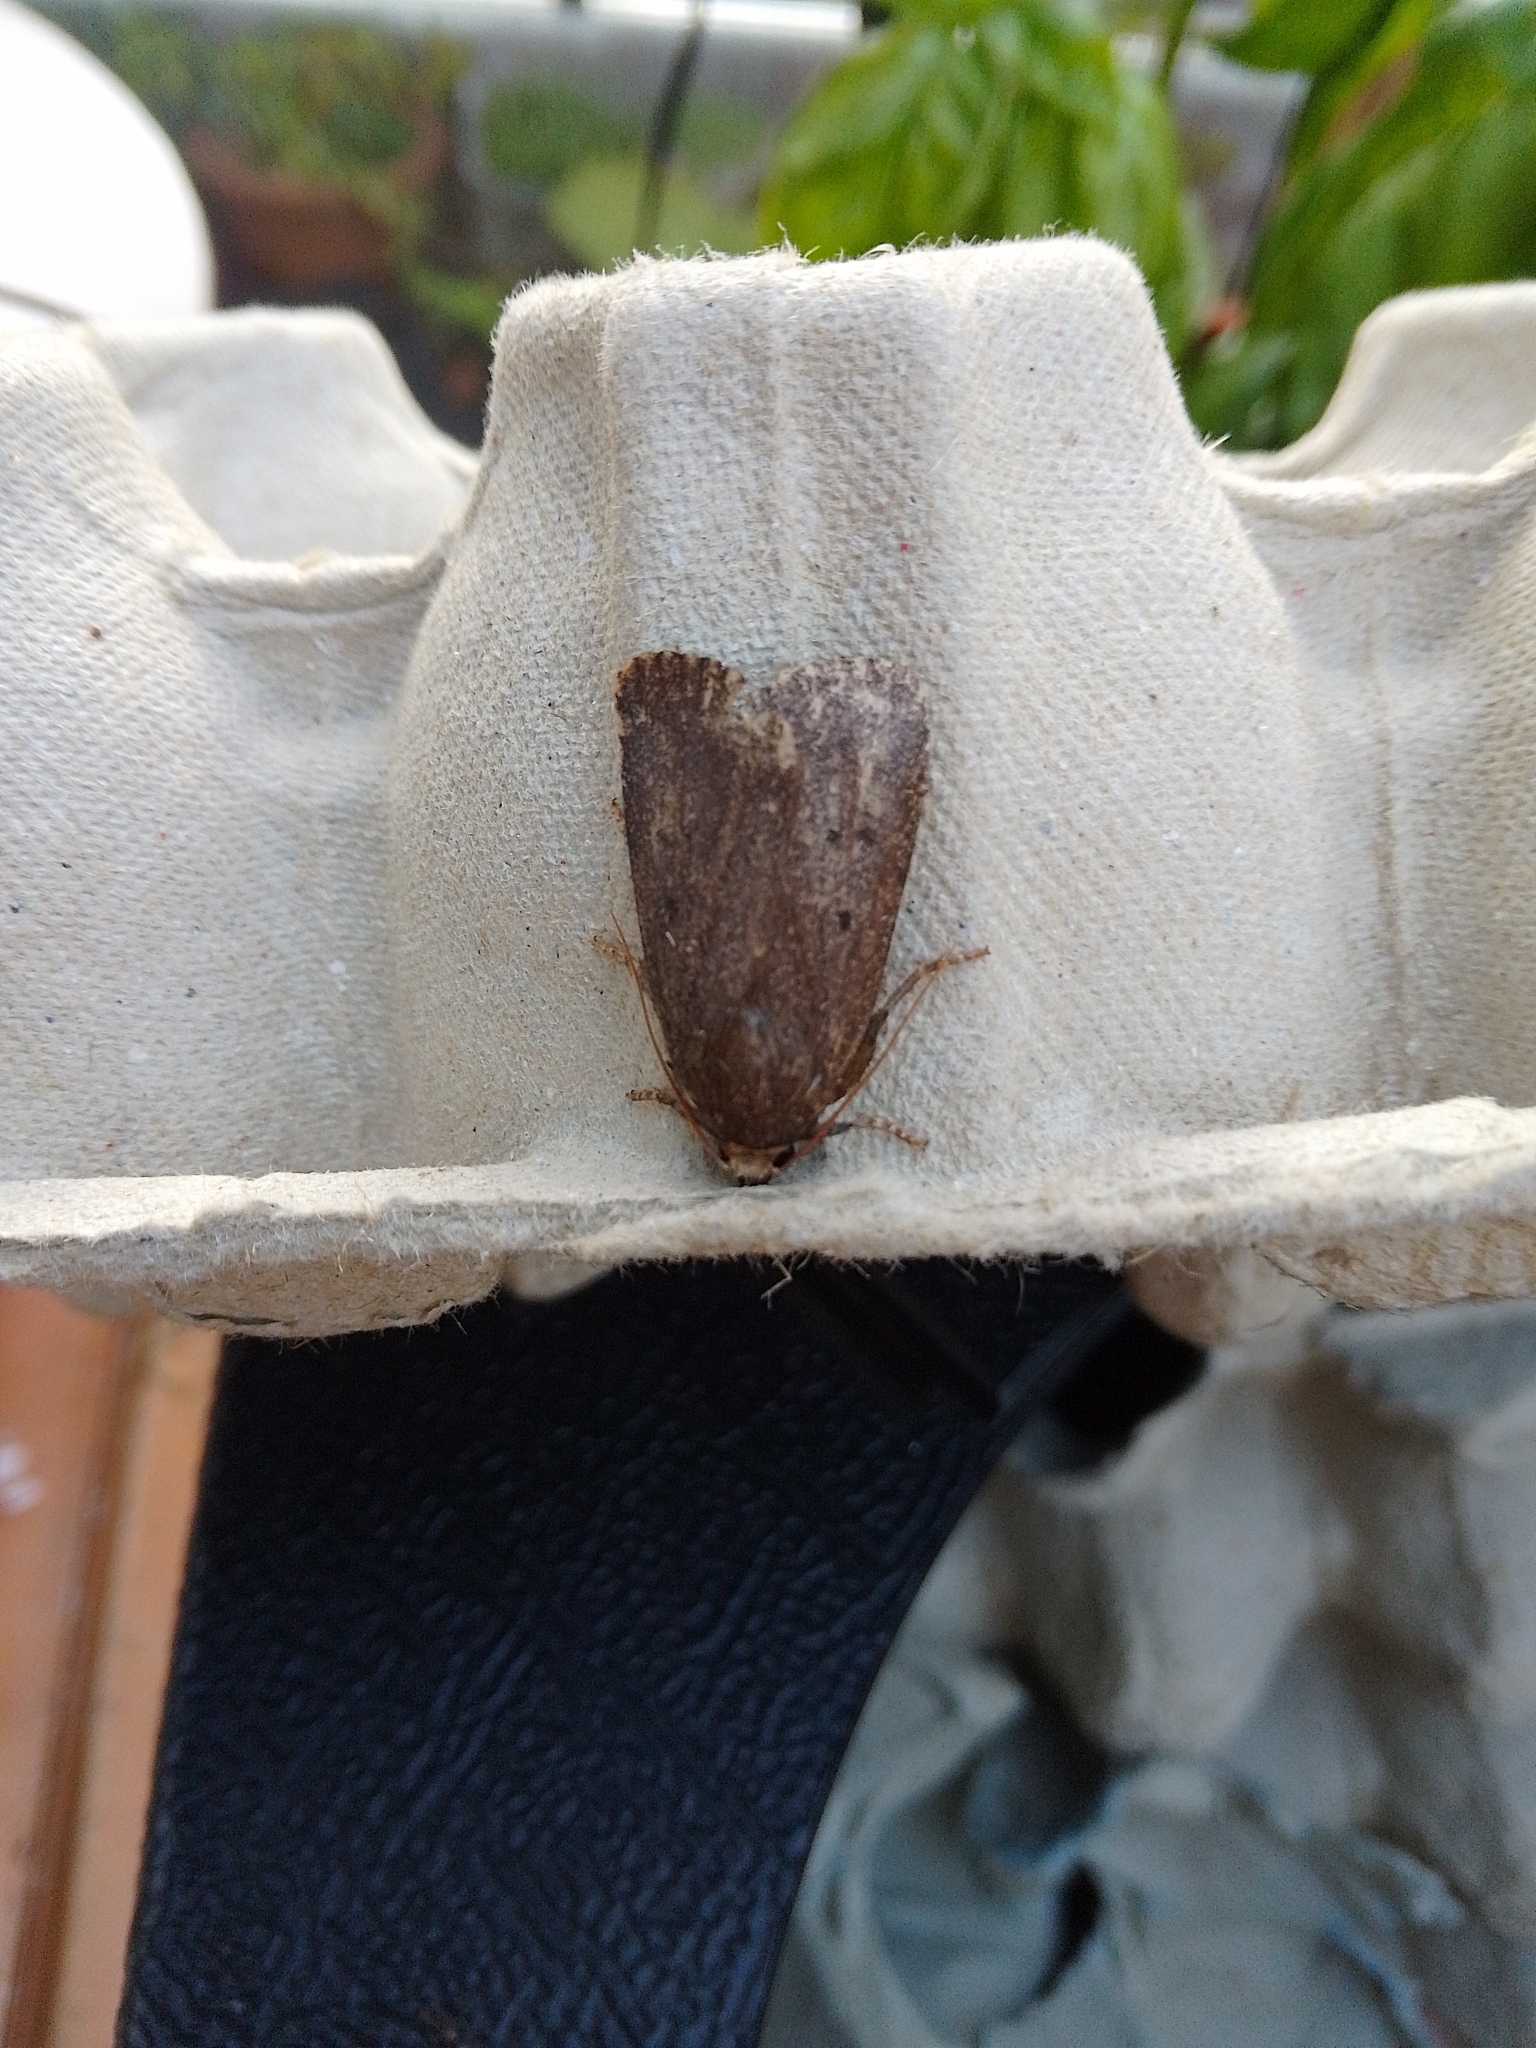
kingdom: Animalia
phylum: Arthropoda
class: Insecta
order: Lepidoptera
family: Noctuidae
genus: Amphipyra
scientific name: Amphipyra tragopoginis
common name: Mouse moth
